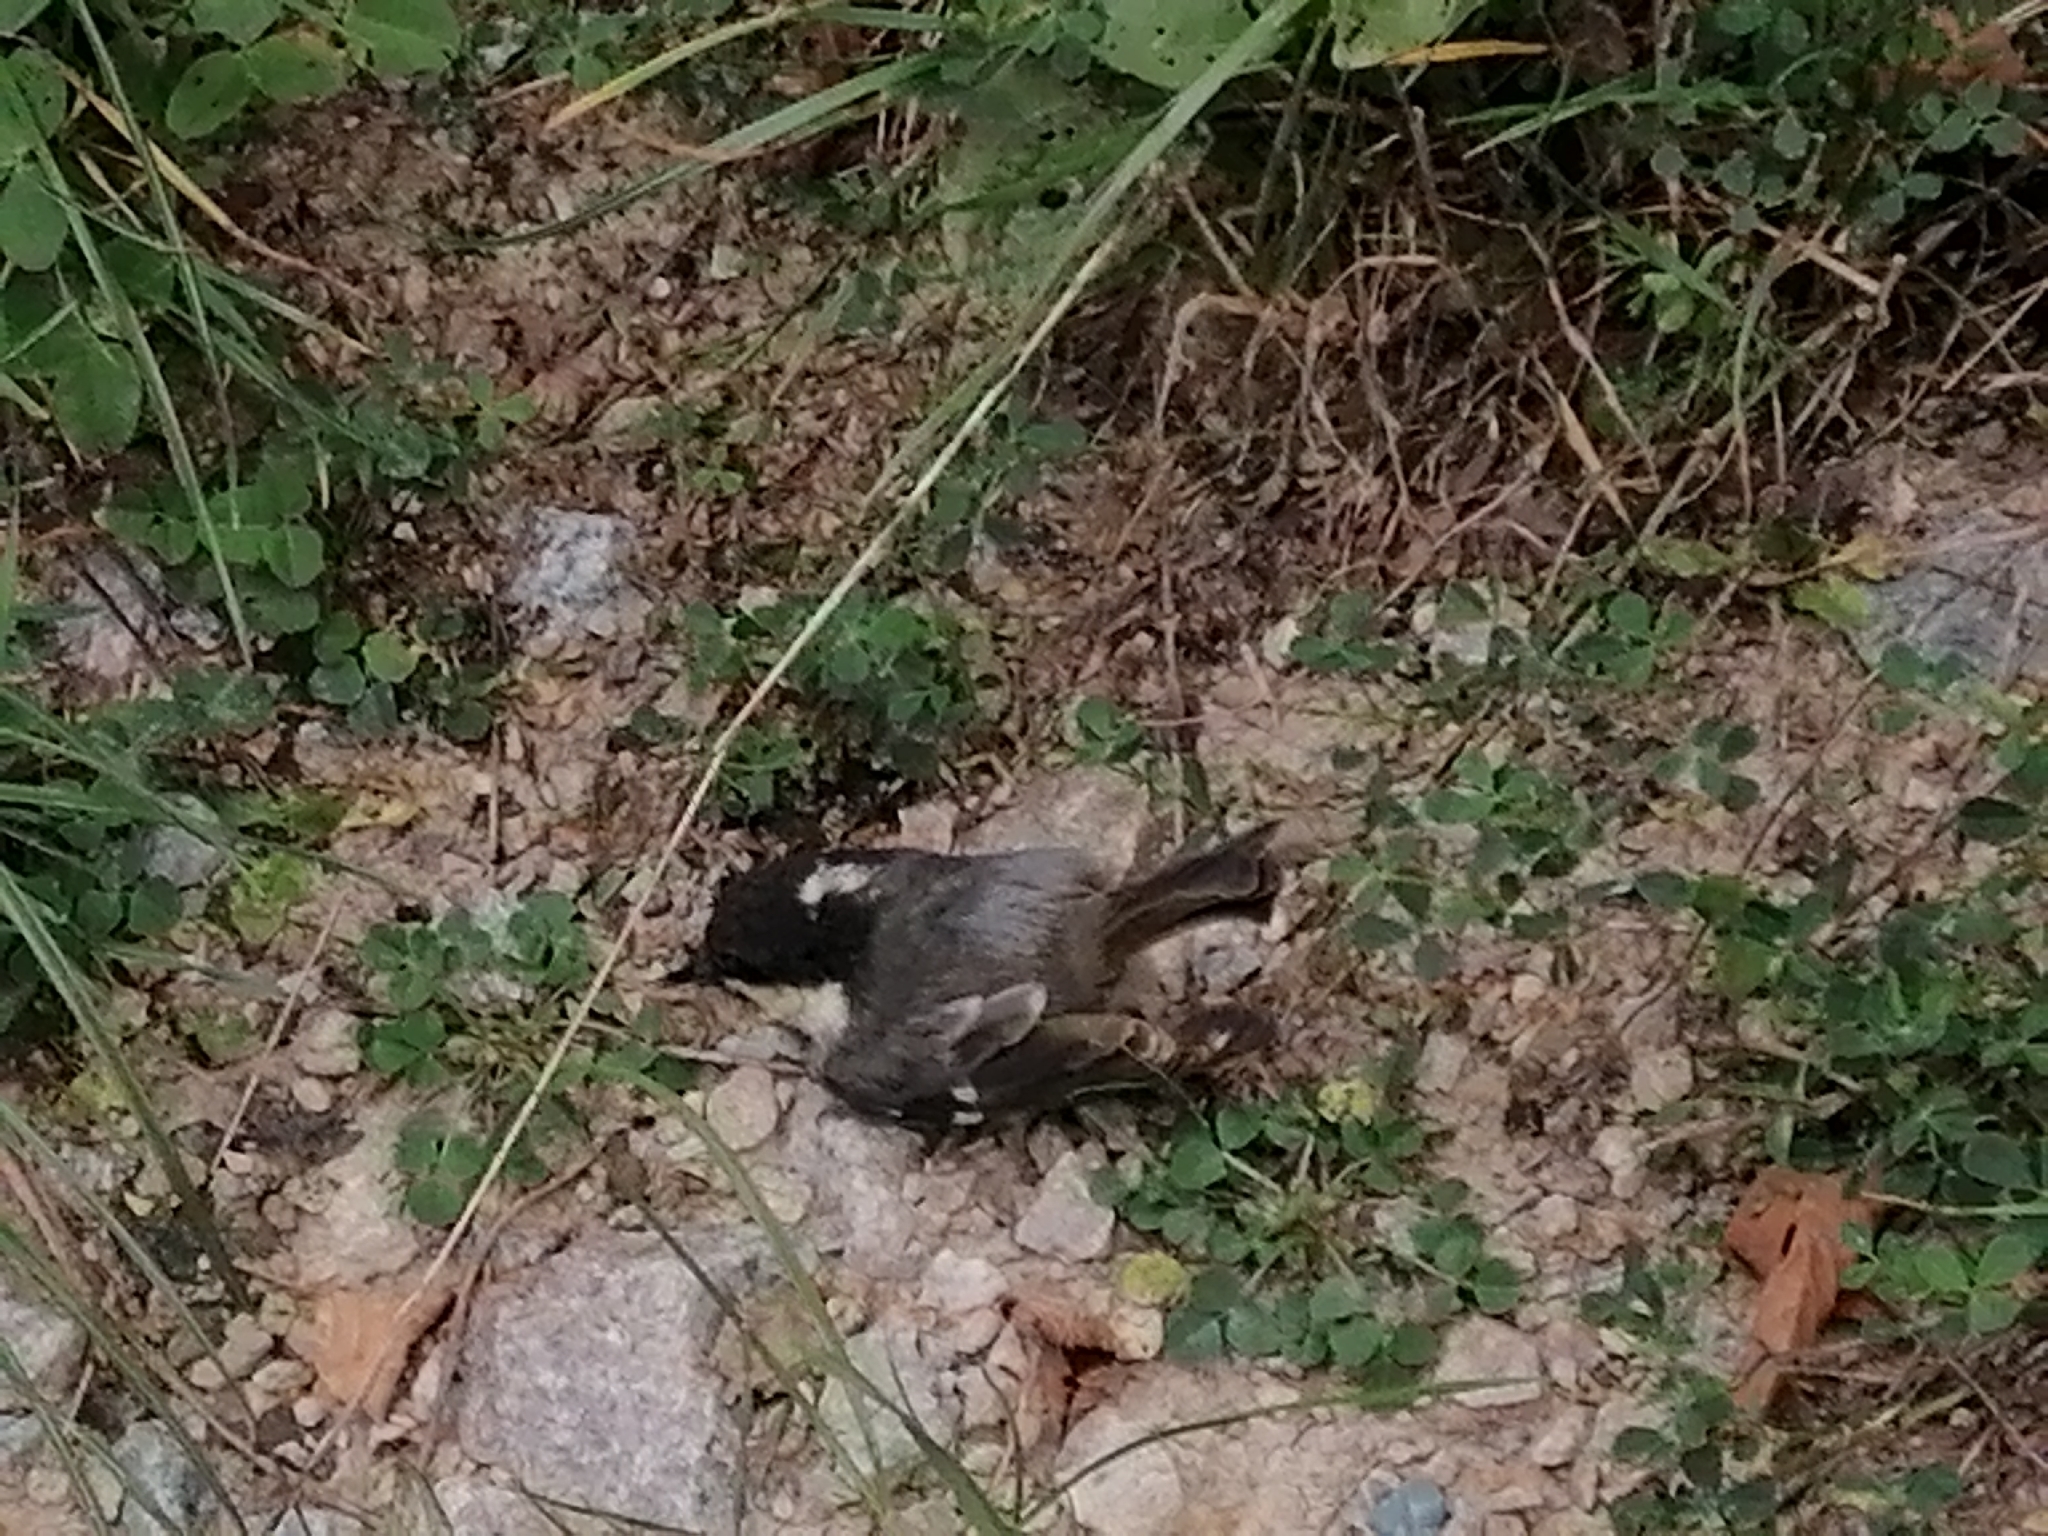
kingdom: Animalia
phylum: Chordata
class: Aves
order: Passeriformes
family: Paridae
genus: Periparus
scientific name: Periparus ater
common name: Coal tit
